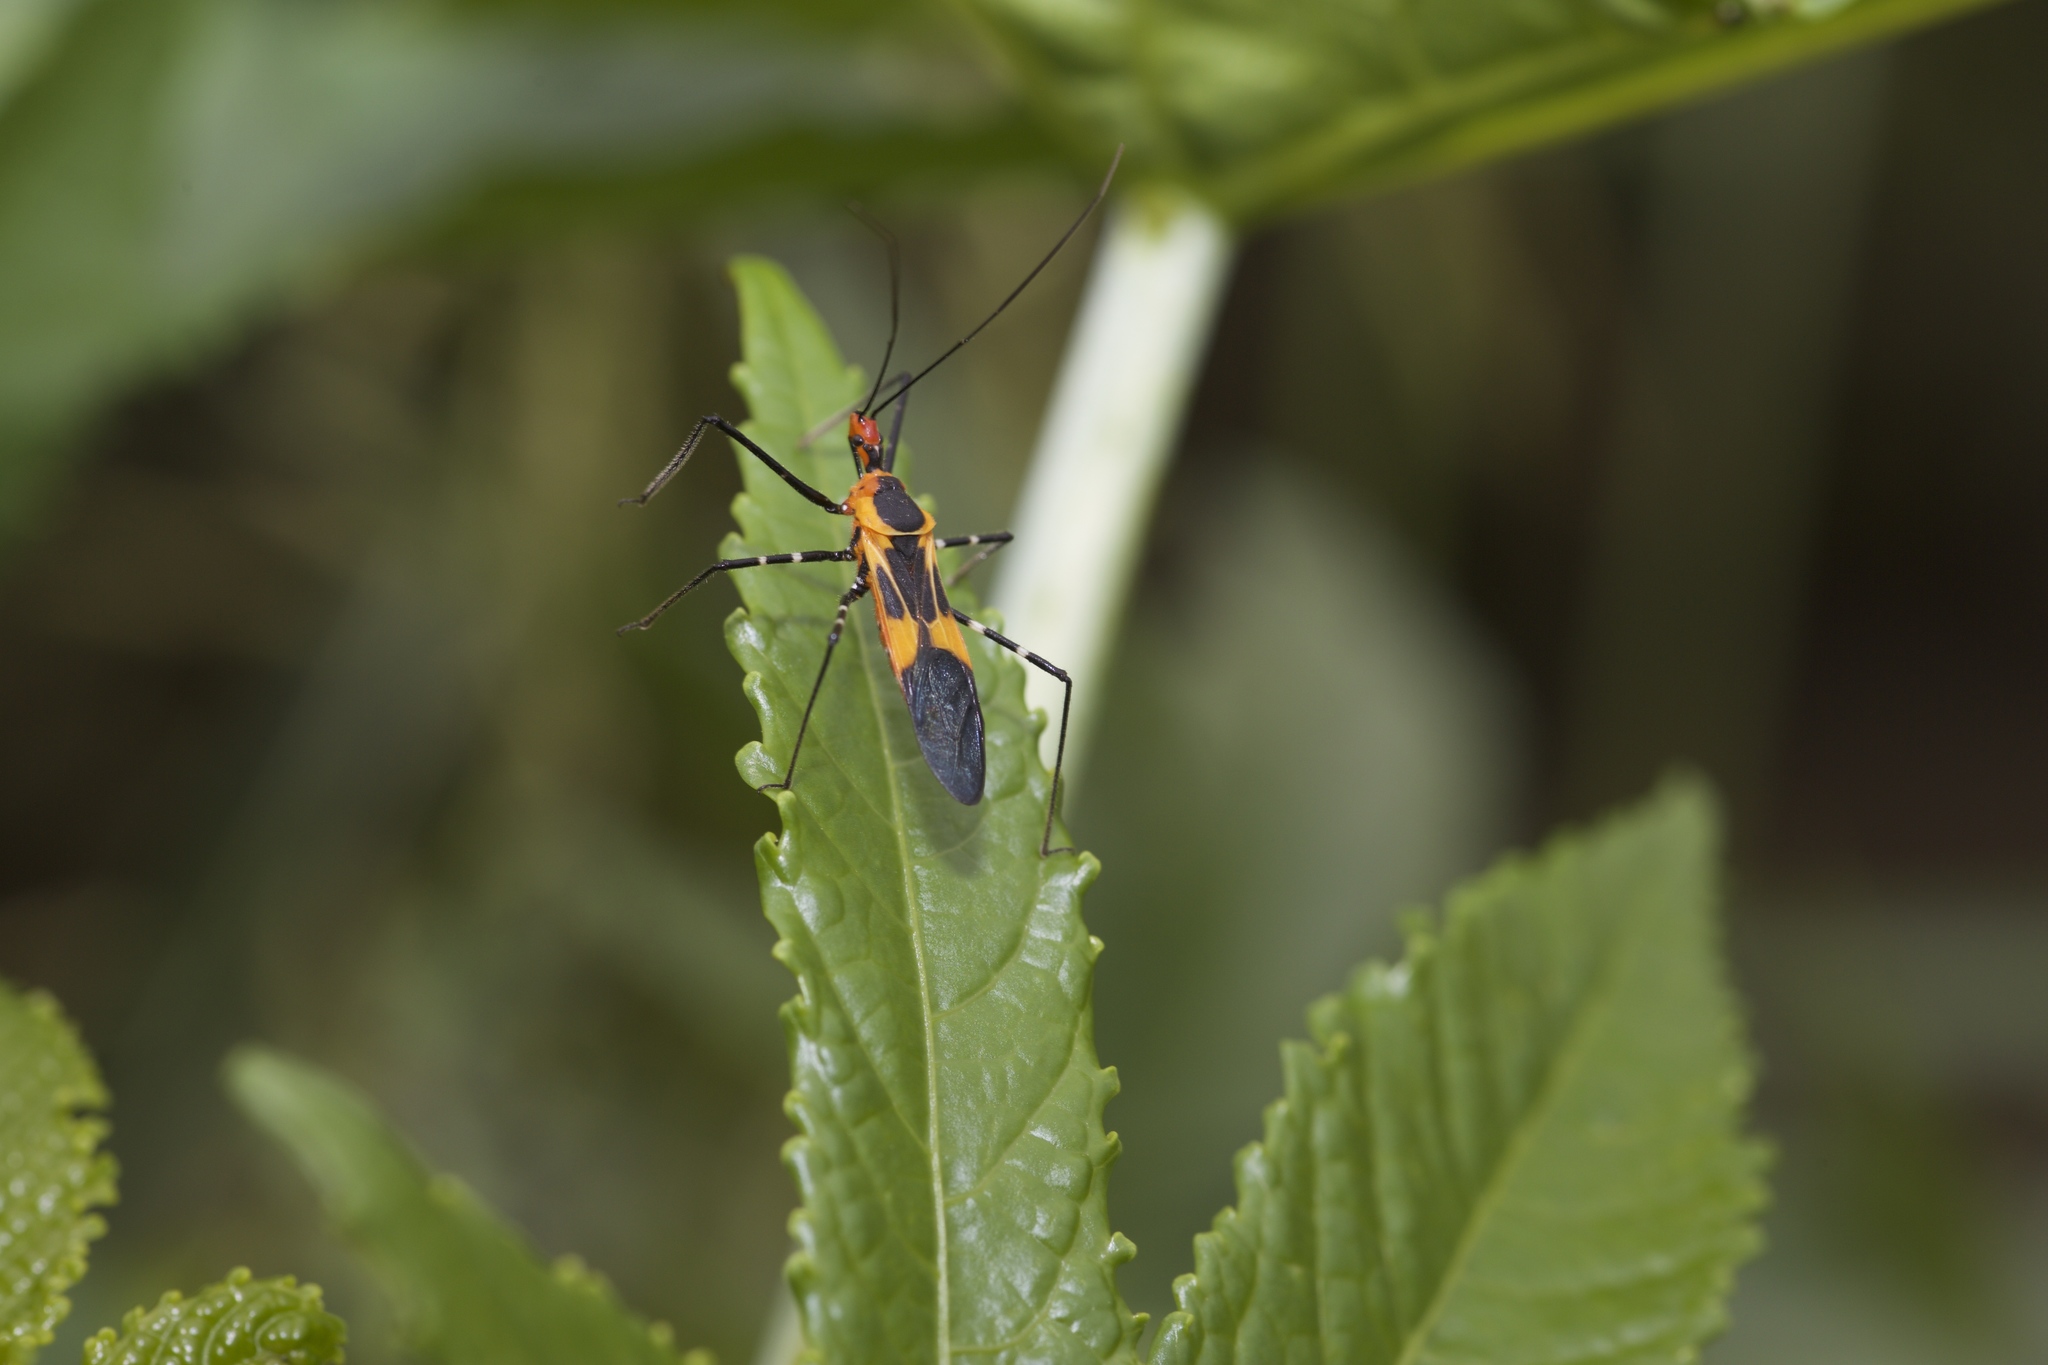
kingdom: Animalia
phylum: Arthropoda
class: Insecta
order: Hemiptera
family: Reduviidae
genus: Zelus
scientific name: Zelus longipes
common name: Milkweed assassin bug
